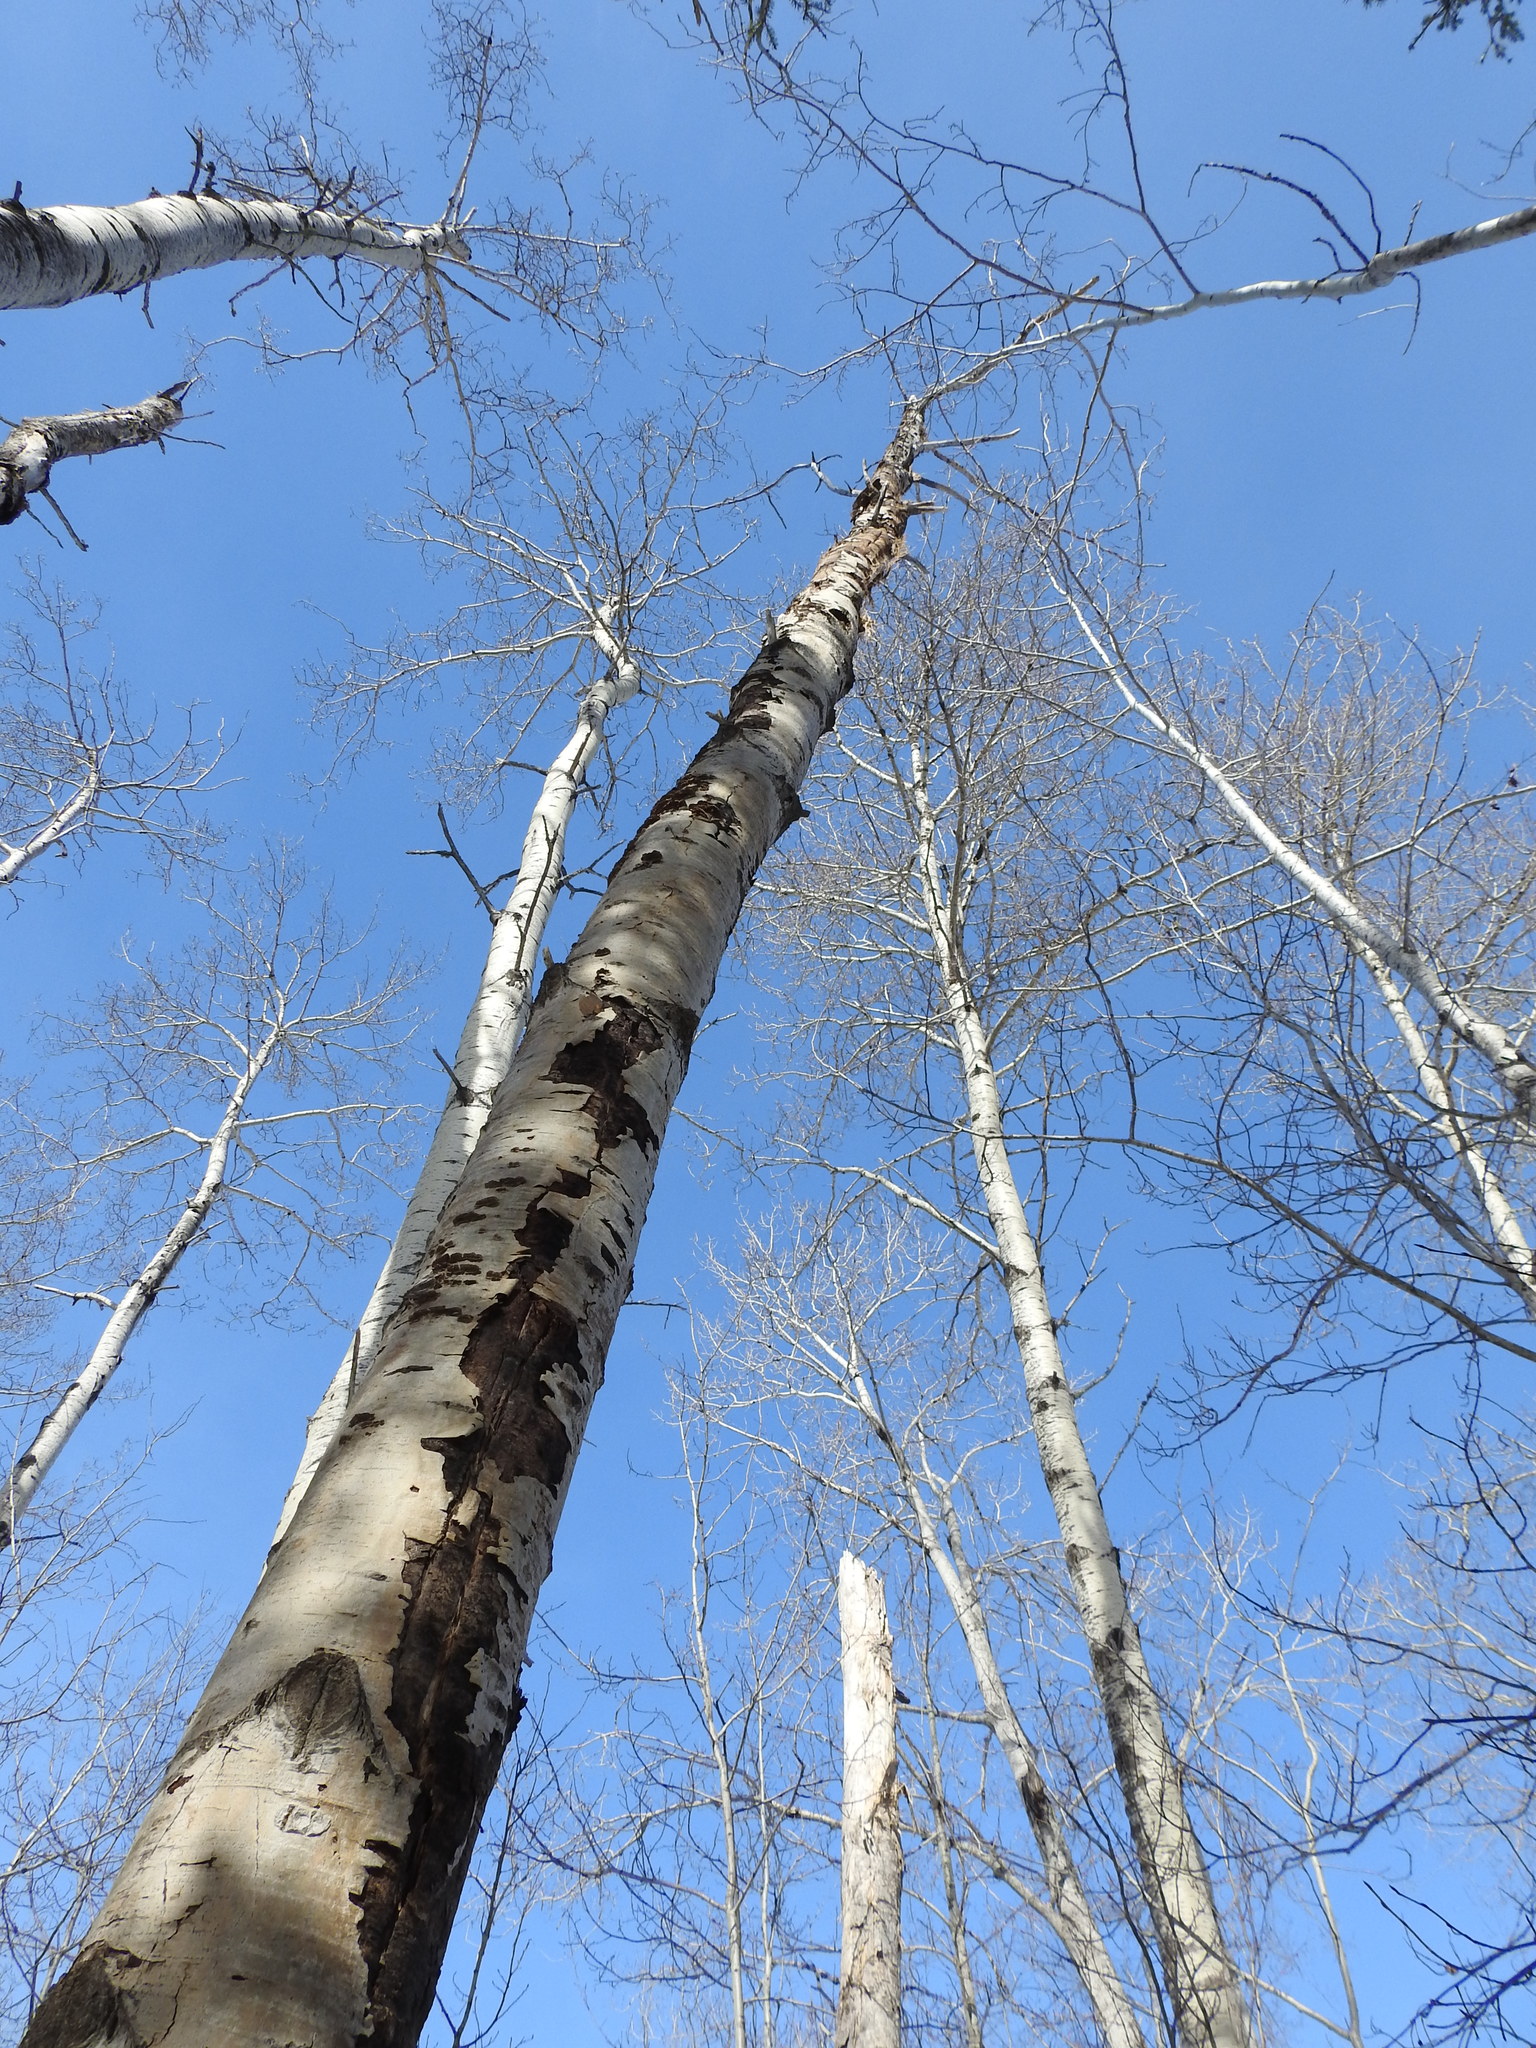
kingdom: Plantae
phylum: Tracheophyta
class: Magnoliopsida
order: Malpighiales
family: Salicaceae
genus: Populus
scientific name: Populus tremuloides
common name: Quaking aspen
